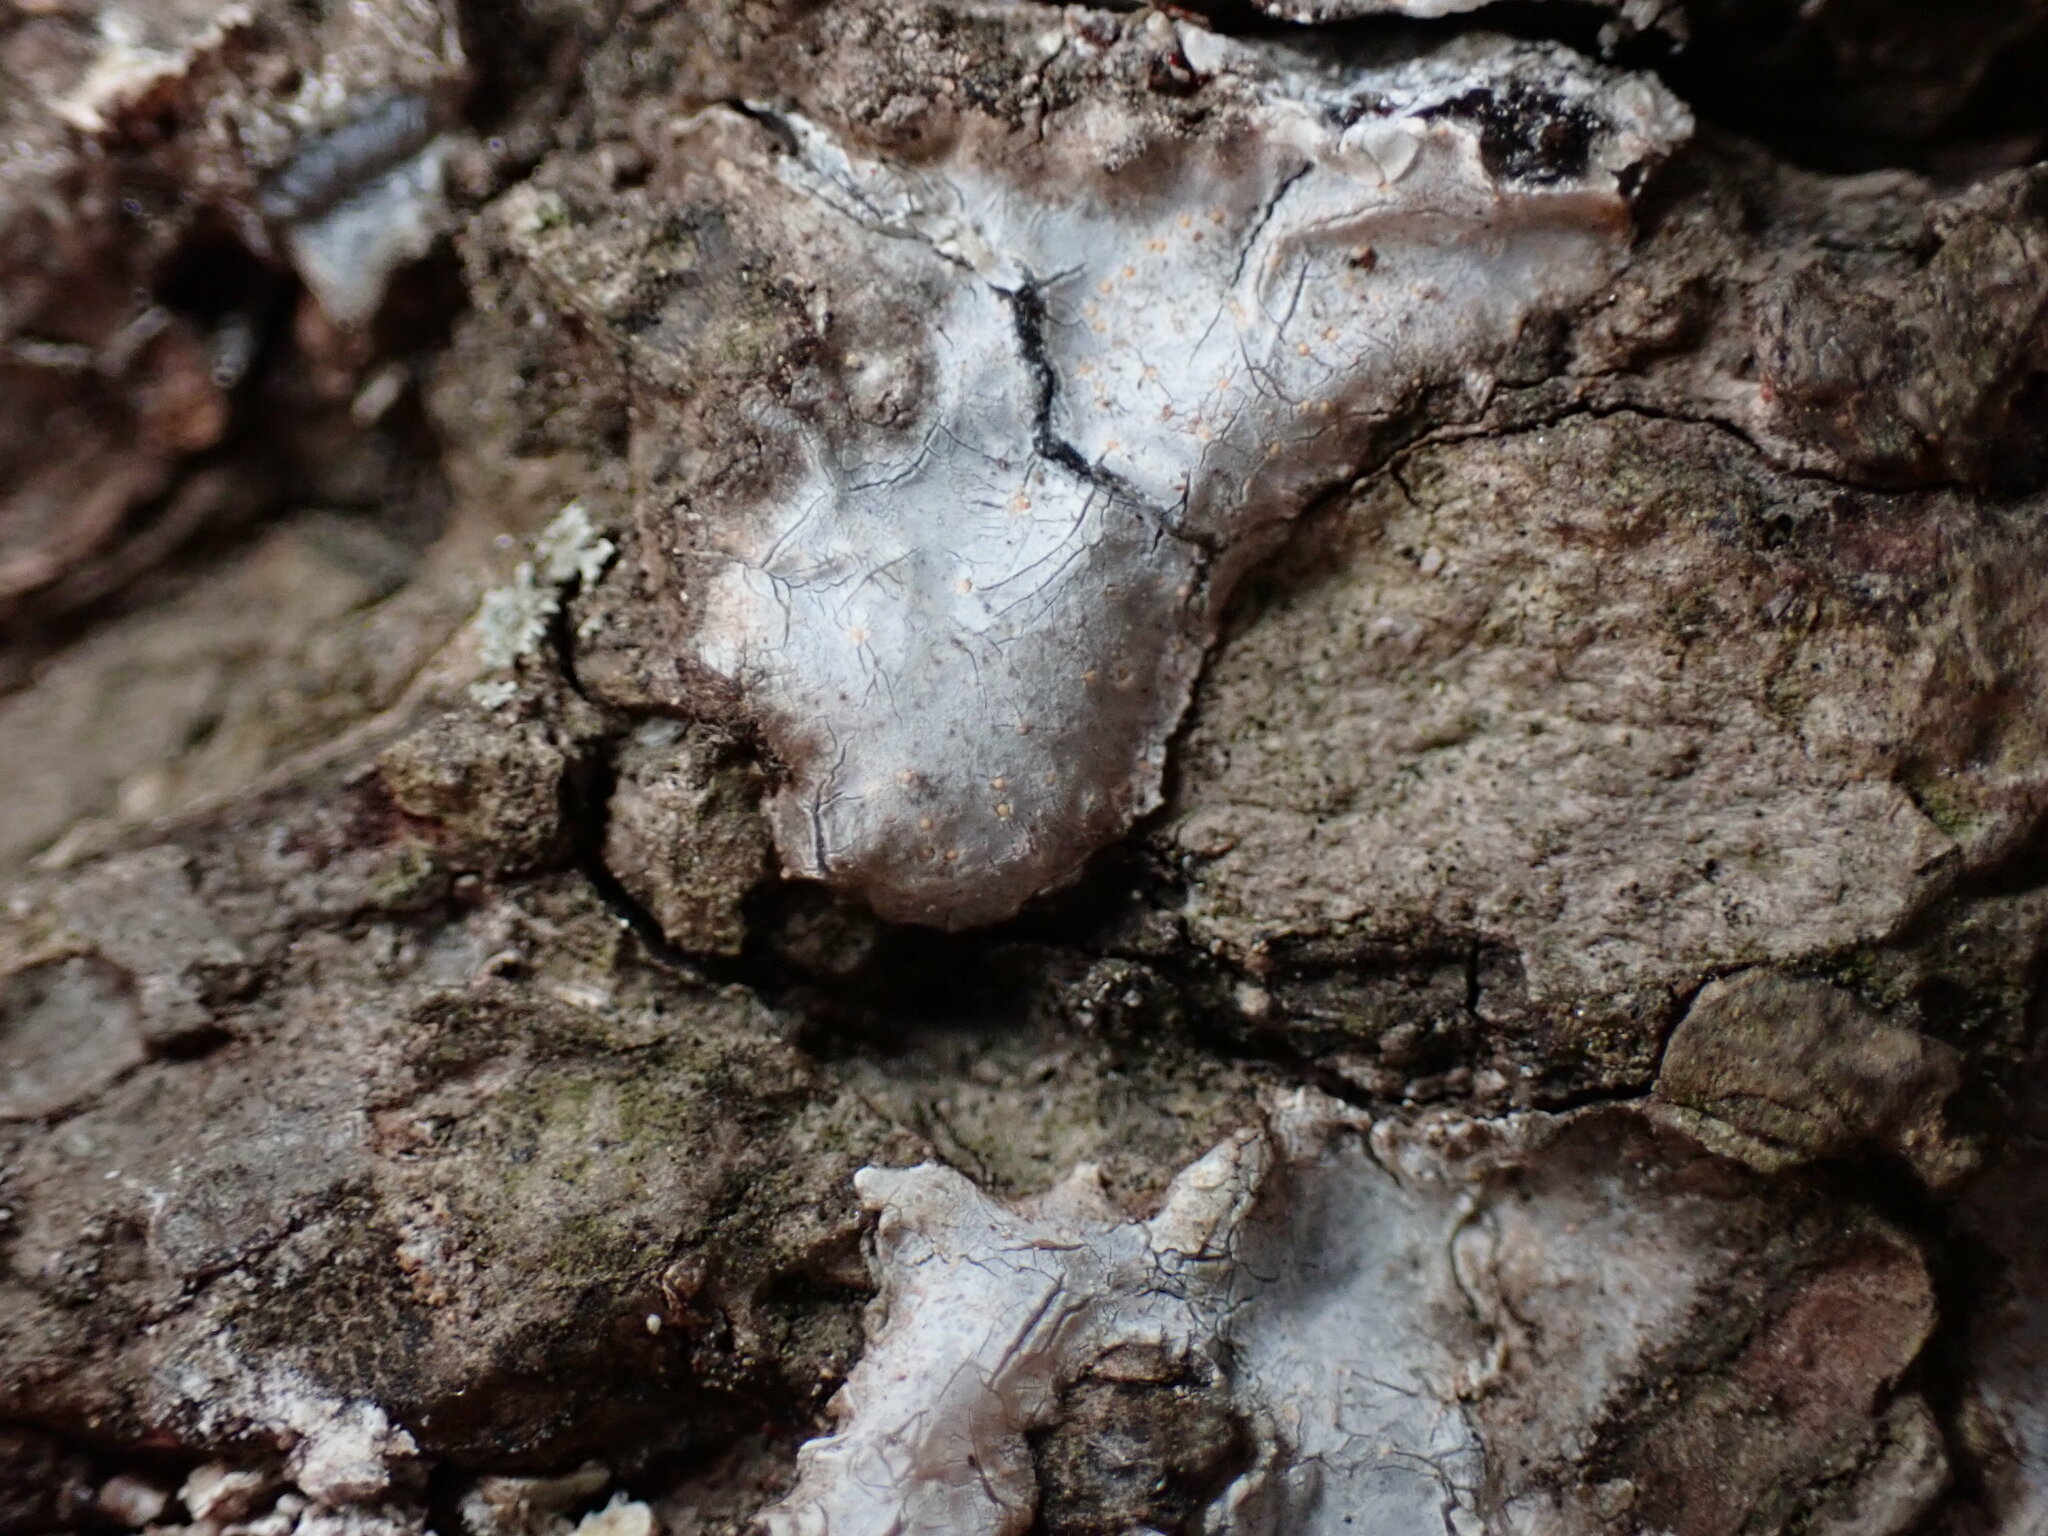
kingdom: Fungi
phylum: Ascomycota
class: Sareomycetes
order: Sareales
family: Sareaceae
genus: Sarea
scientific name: Sarea resinae
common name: Sarea lichen
